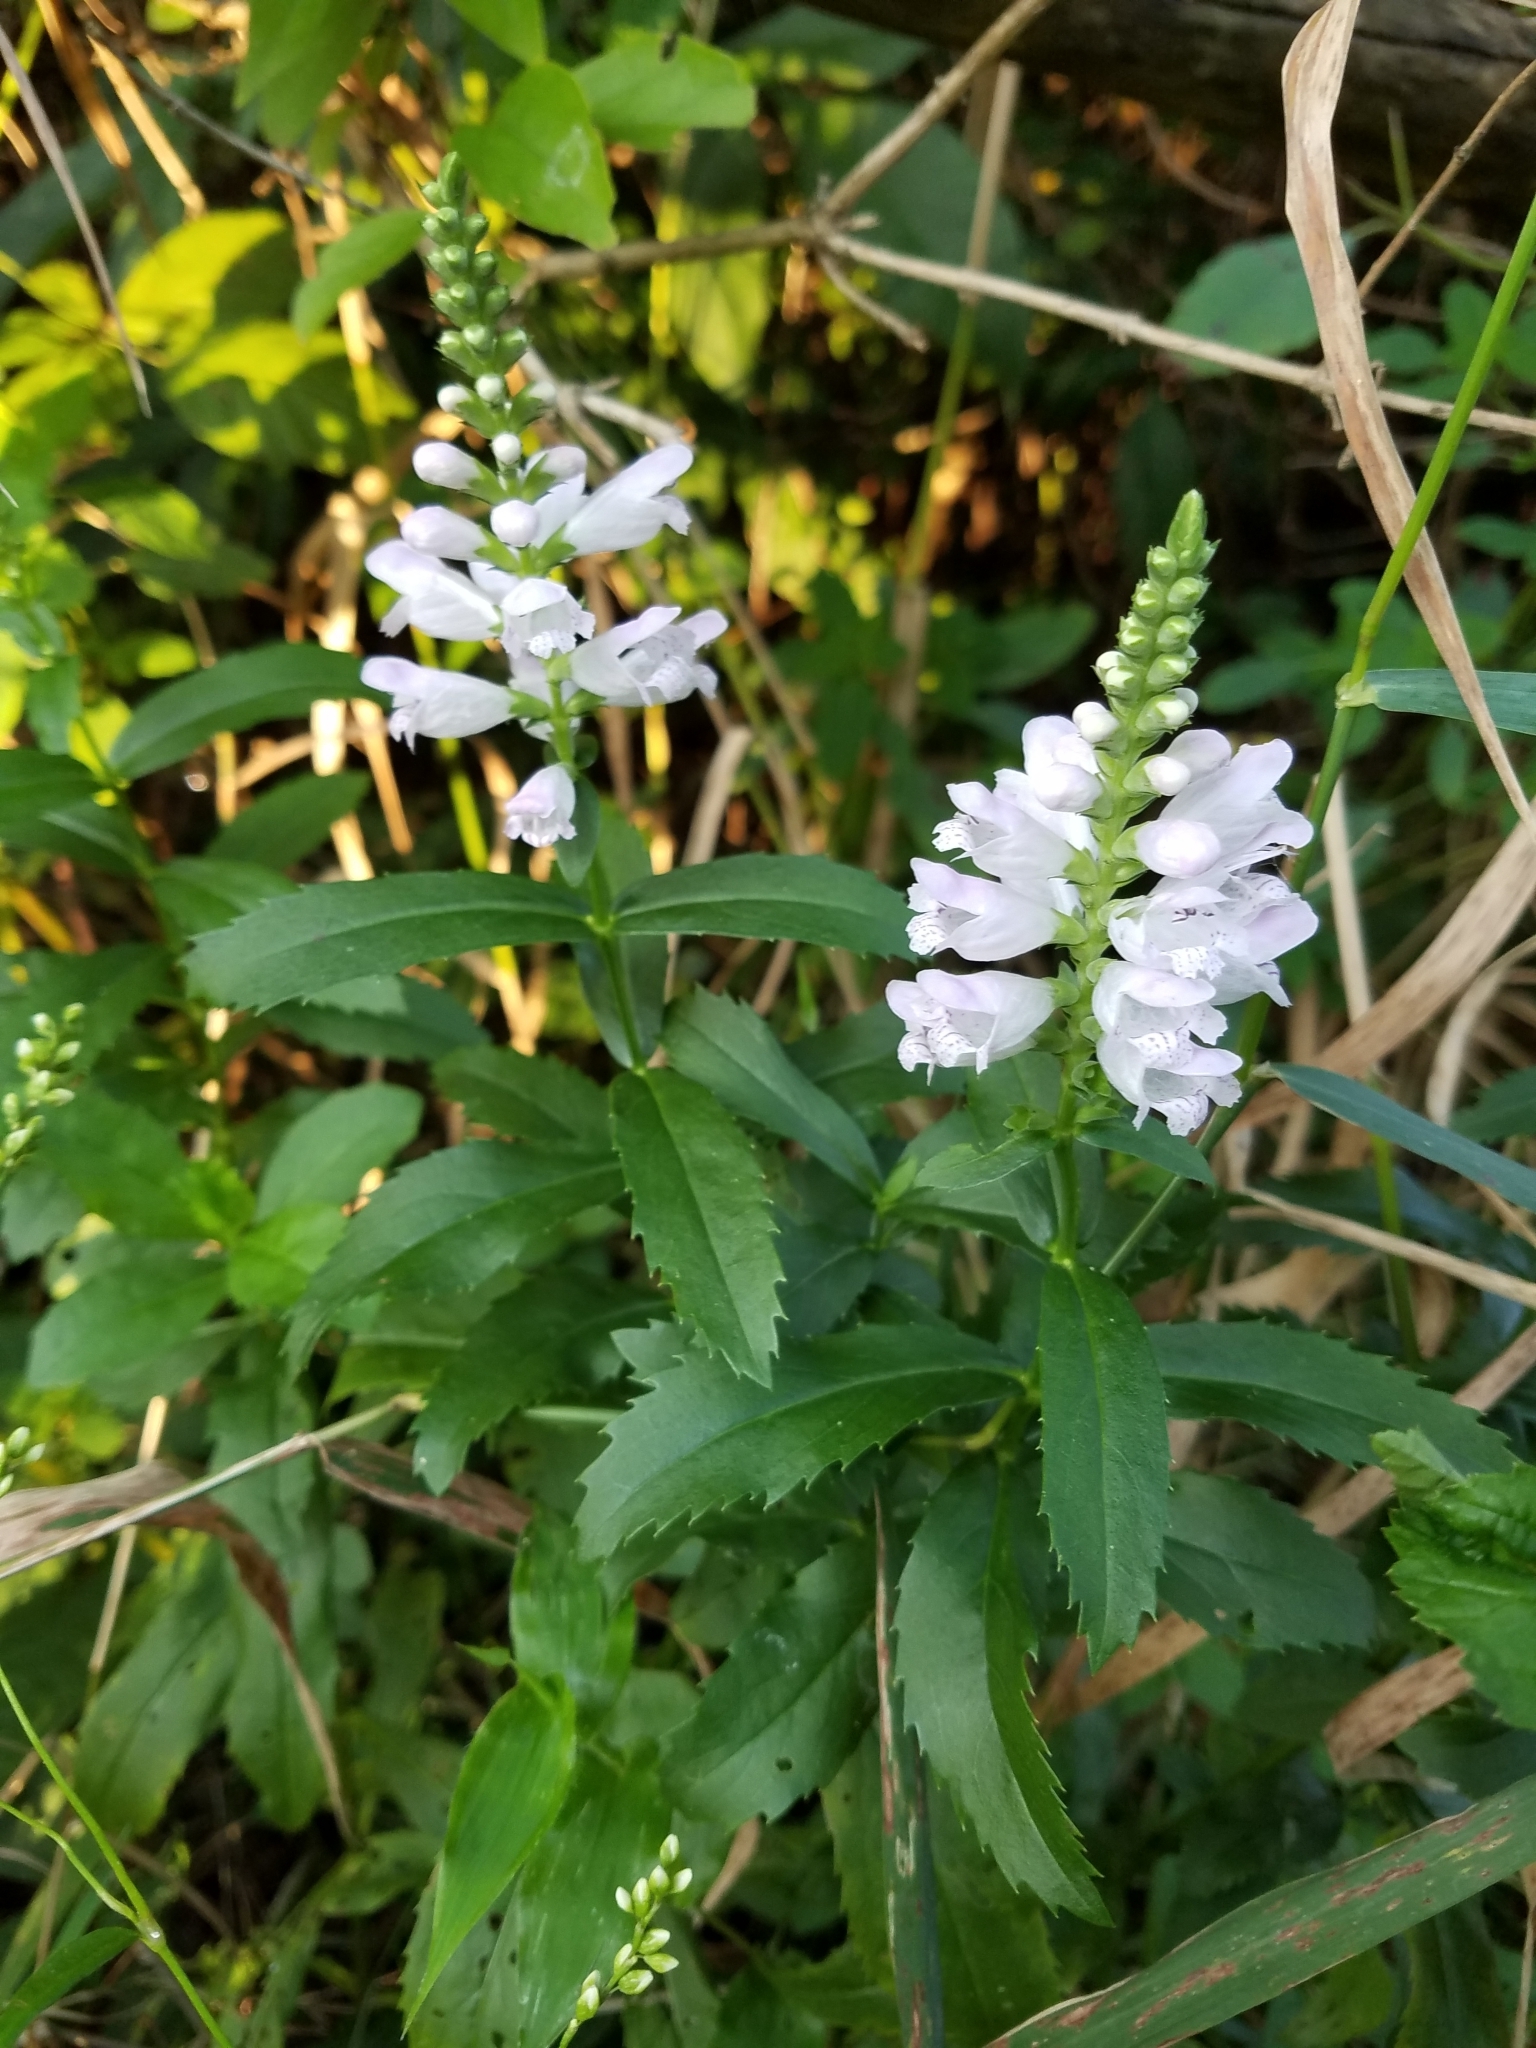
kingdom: Plantae
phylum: Tracheophyta
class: Magnoliopsida
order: Lamiales
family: Lamiaceae
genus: Physostegia
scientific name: Physostegia virginiana
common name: Obedient-plant
